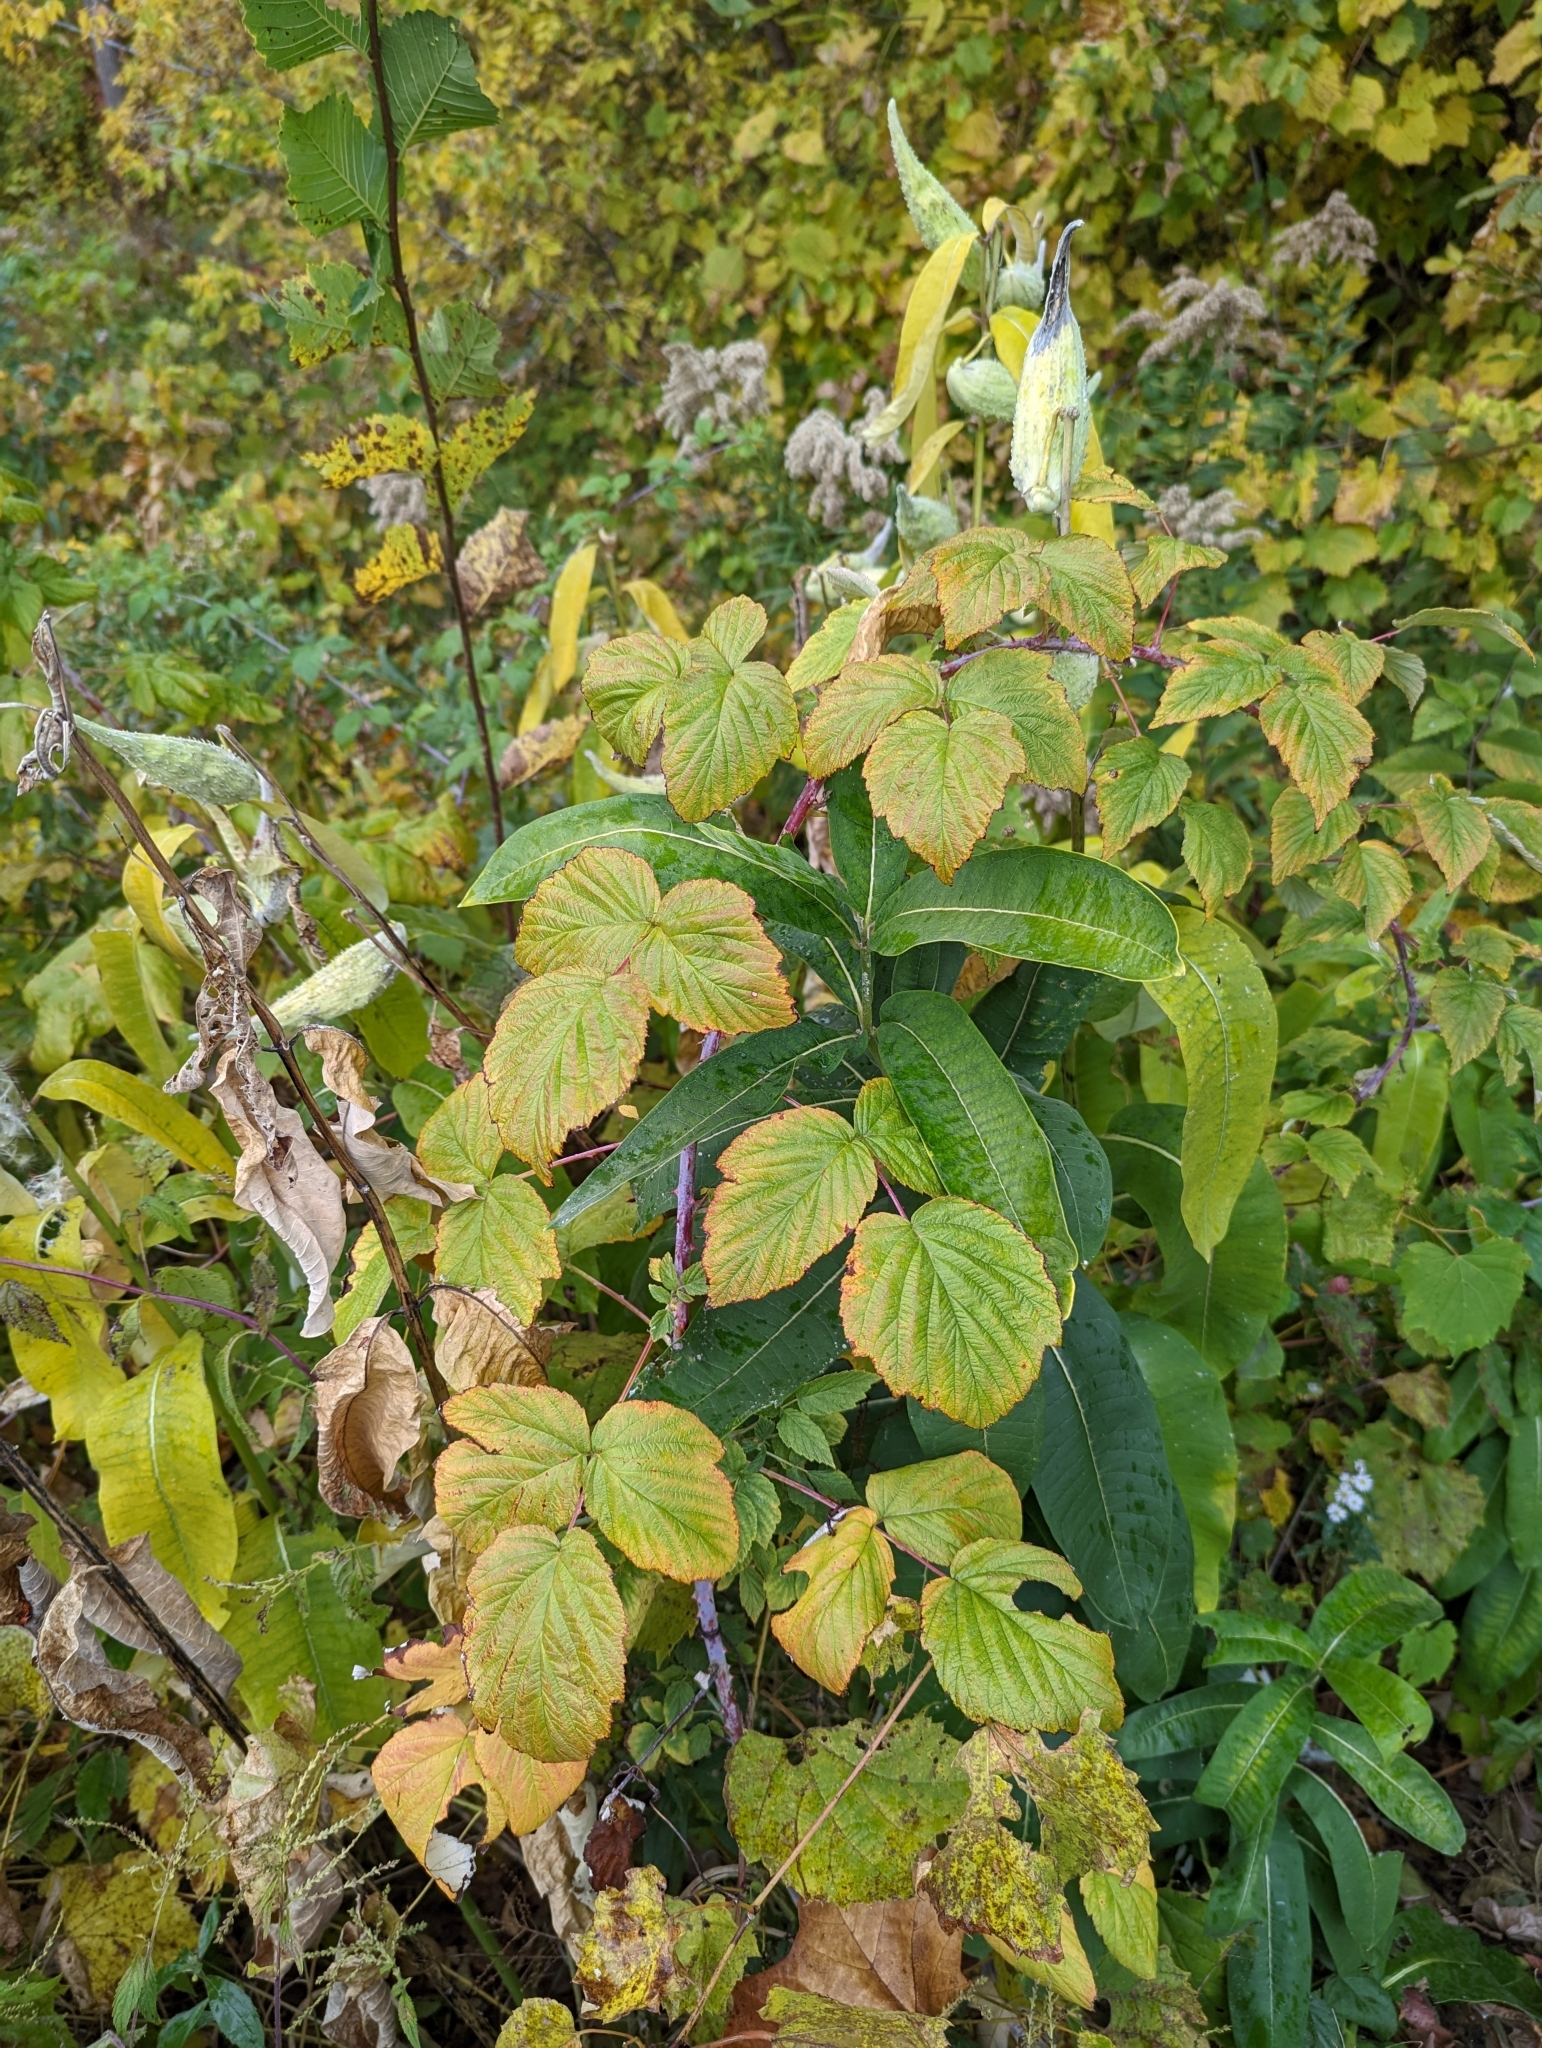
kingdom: Plantae
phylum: Tracheophyta
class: Magnoliopsida
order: Rosales
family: Rosaceae
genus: Rubus
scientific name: Rubus occidentalis
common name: Black raspberry
